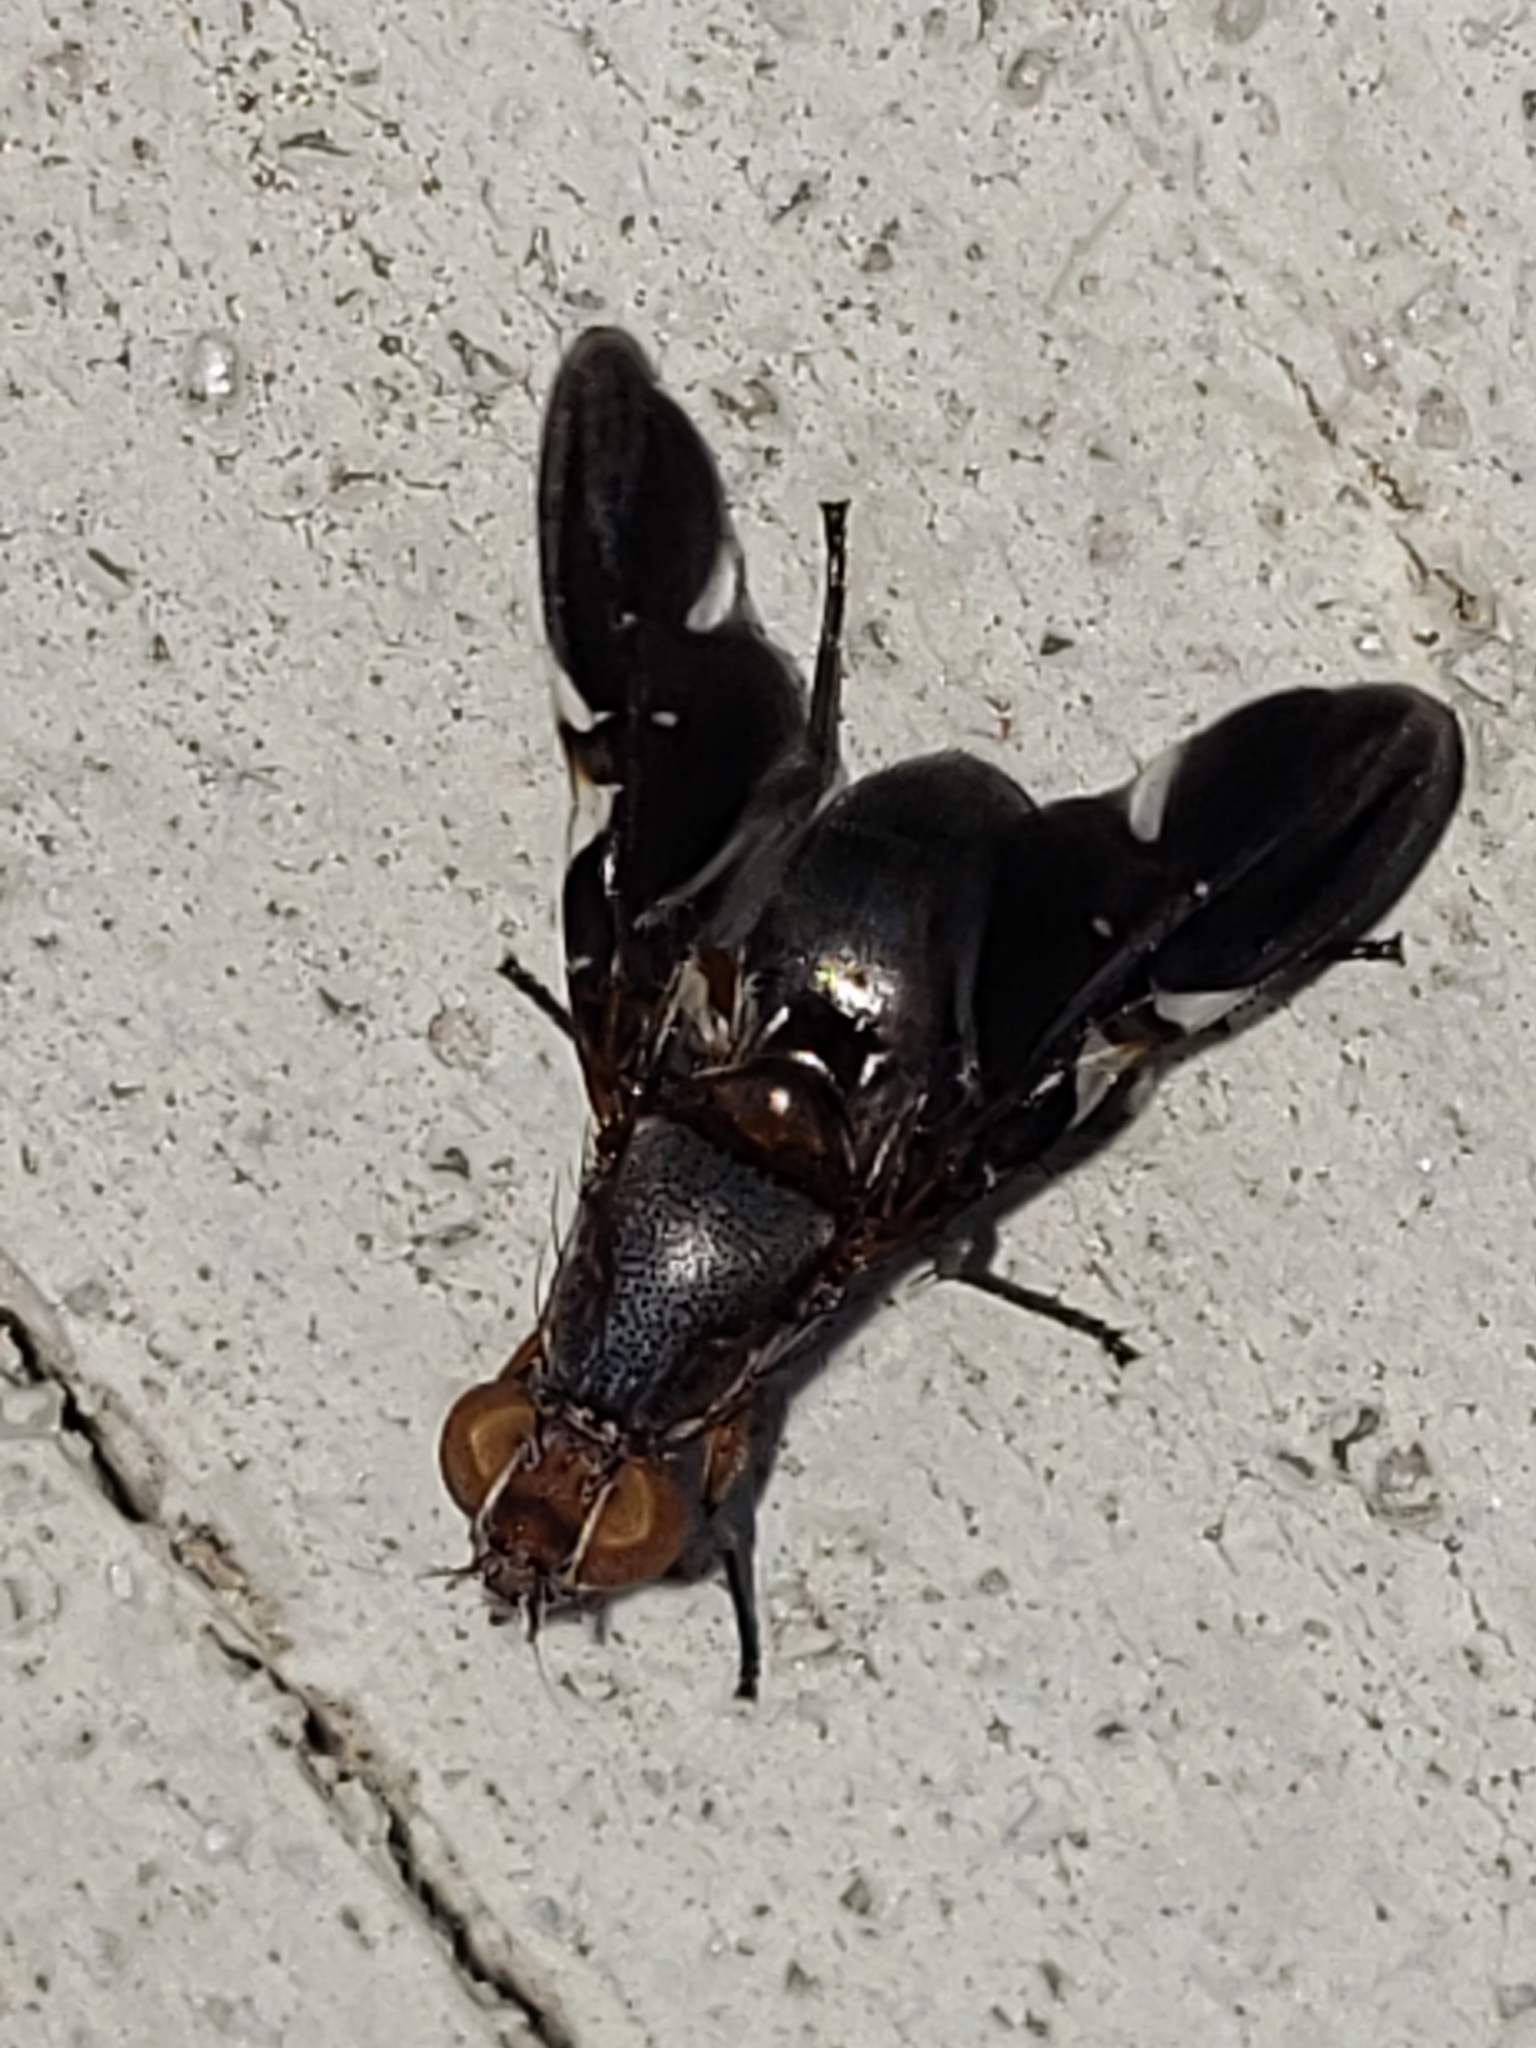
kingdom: Animalia
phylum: Arthropoda
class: Insecta
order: Diptera
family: Ulidiidae
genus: Delphinia
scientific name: Delphinia picta
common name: Common picture-winged fly
